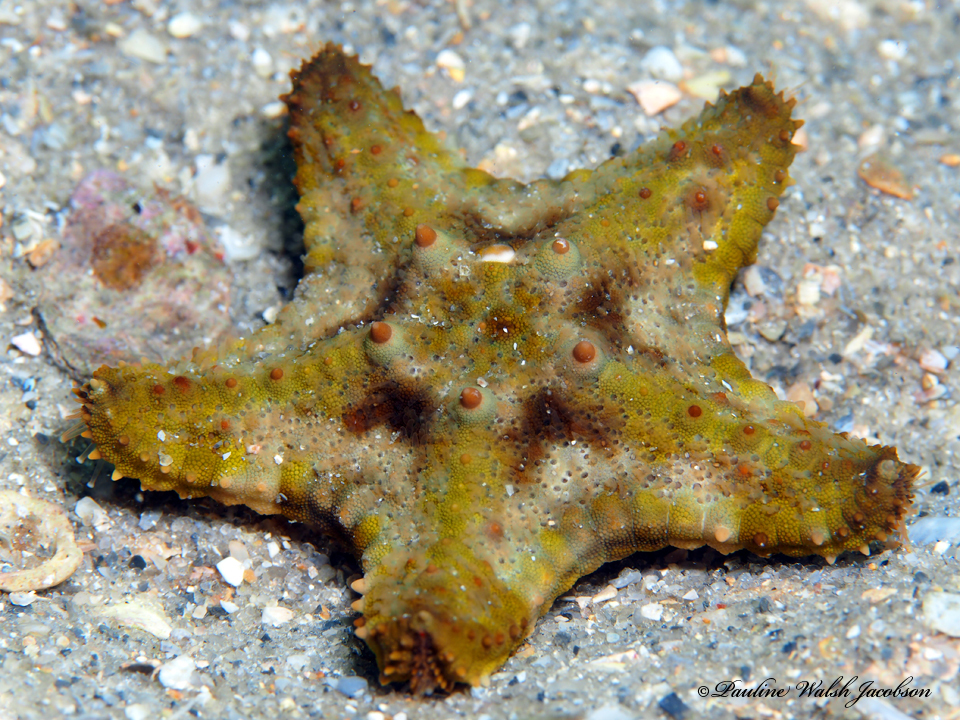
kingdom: Animalia
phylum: Echinodermata
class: Asteroidea
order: Valvatida
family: Oreasteridae
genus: Oreaster
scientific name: Oreaster reticulatus
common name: Cushion sea star
